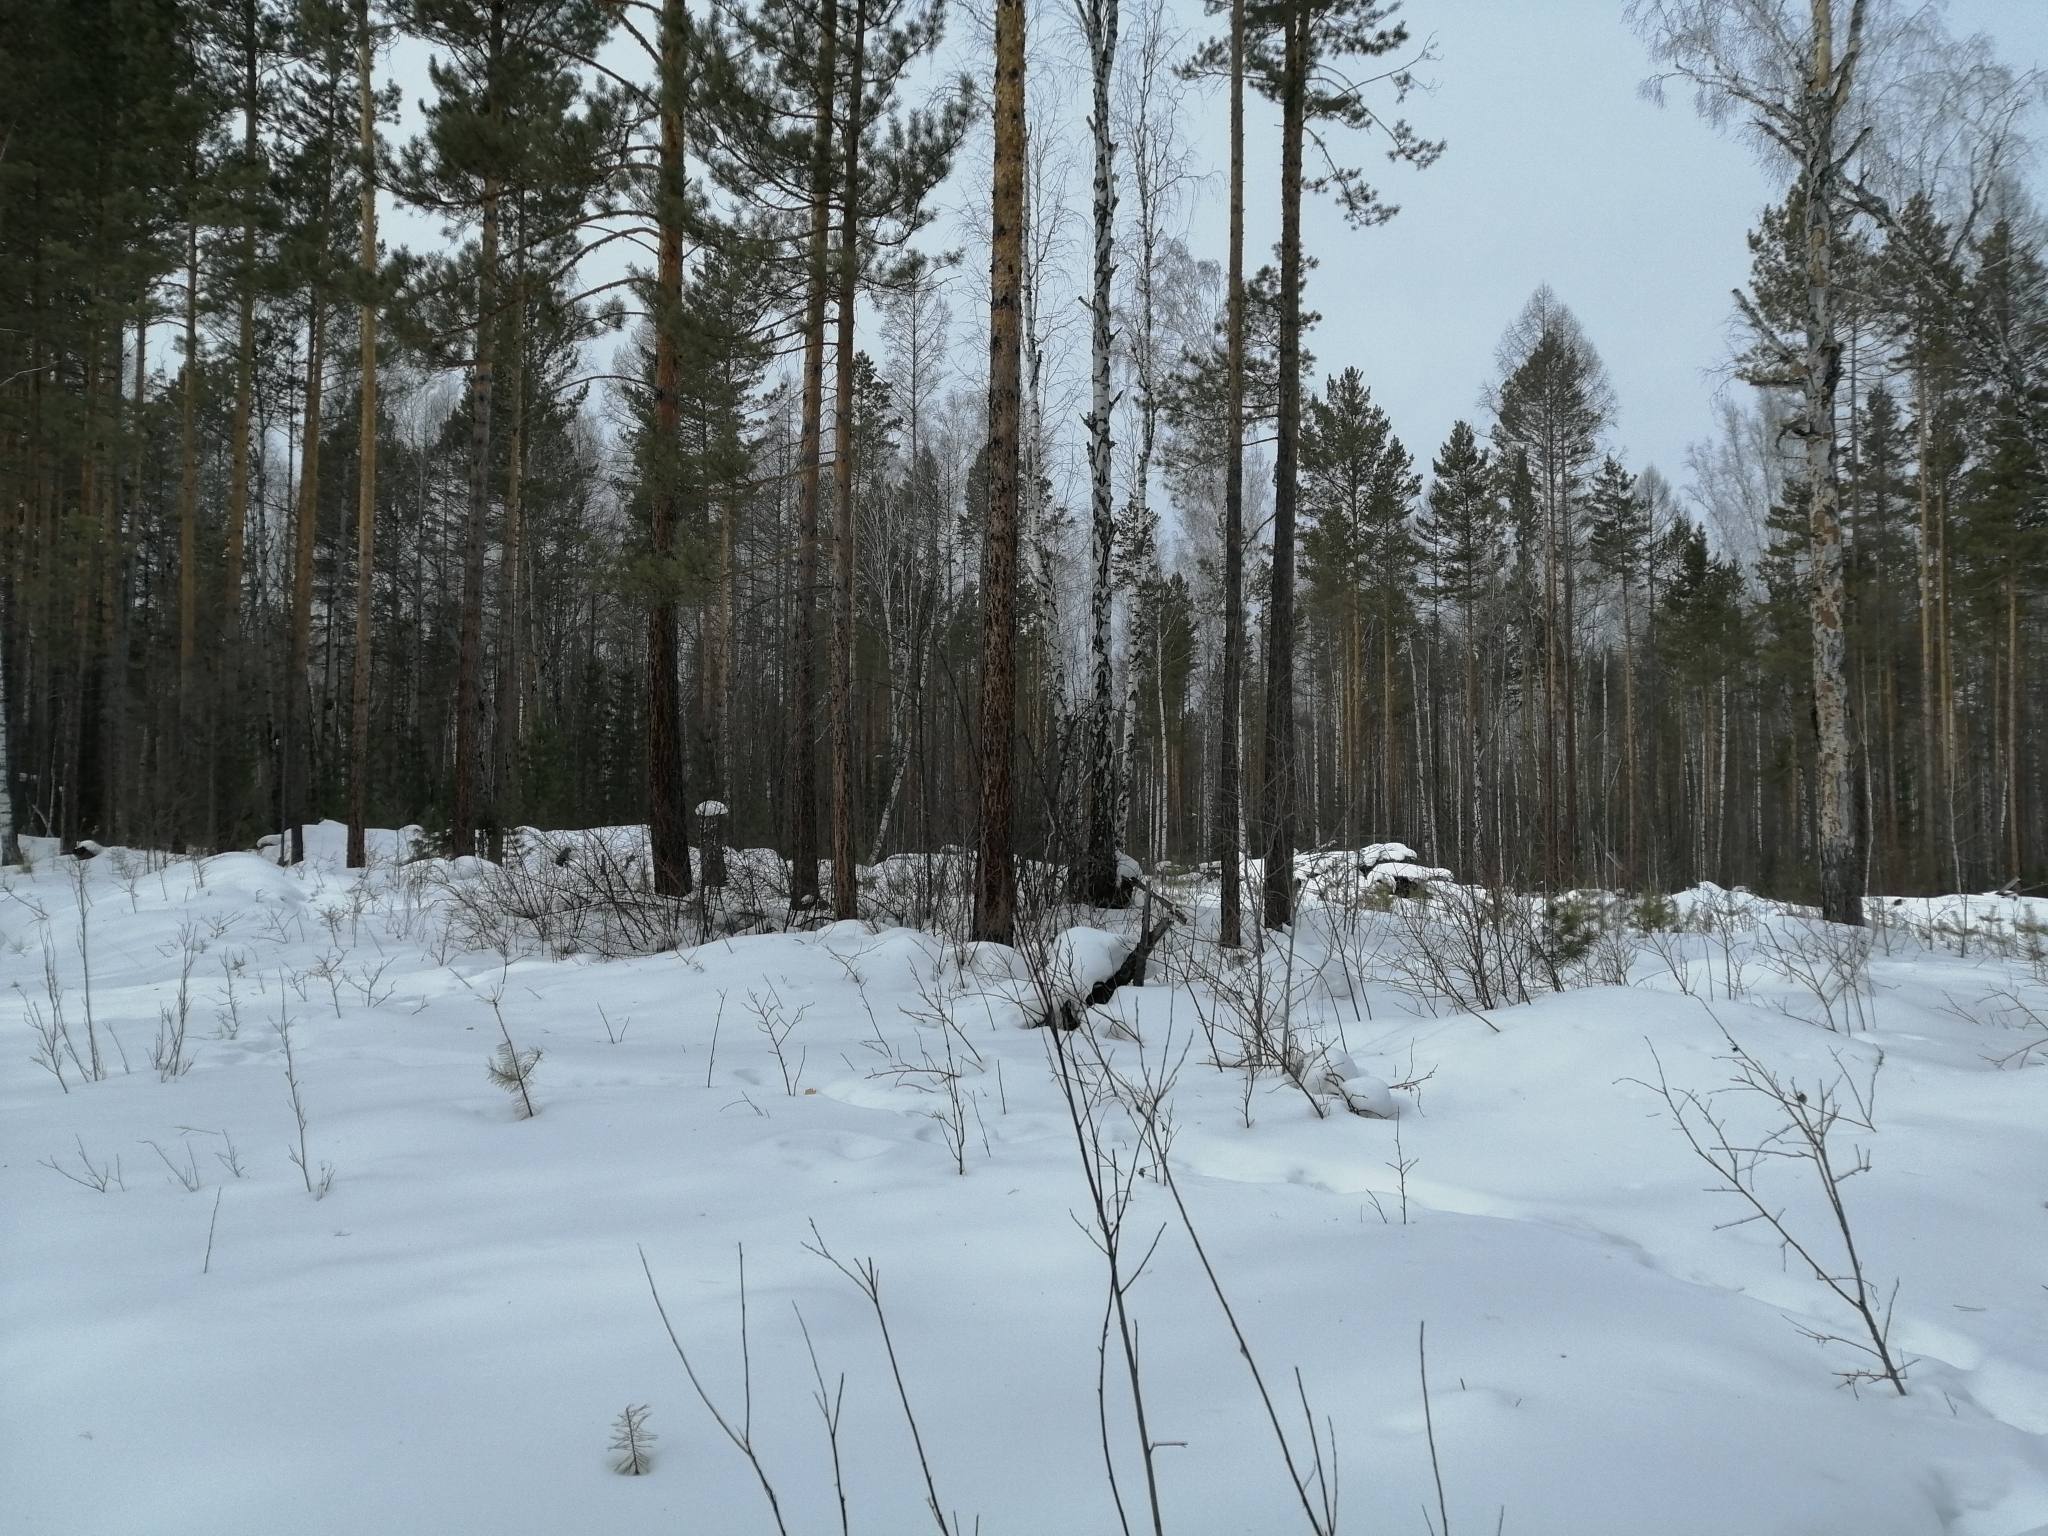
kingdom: Plantae
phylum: Tracheophyta
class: Pinopsida
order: Pinales
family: Pinaceae
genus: Pinus
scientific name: Pinus sylvestris
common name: Scots pine
